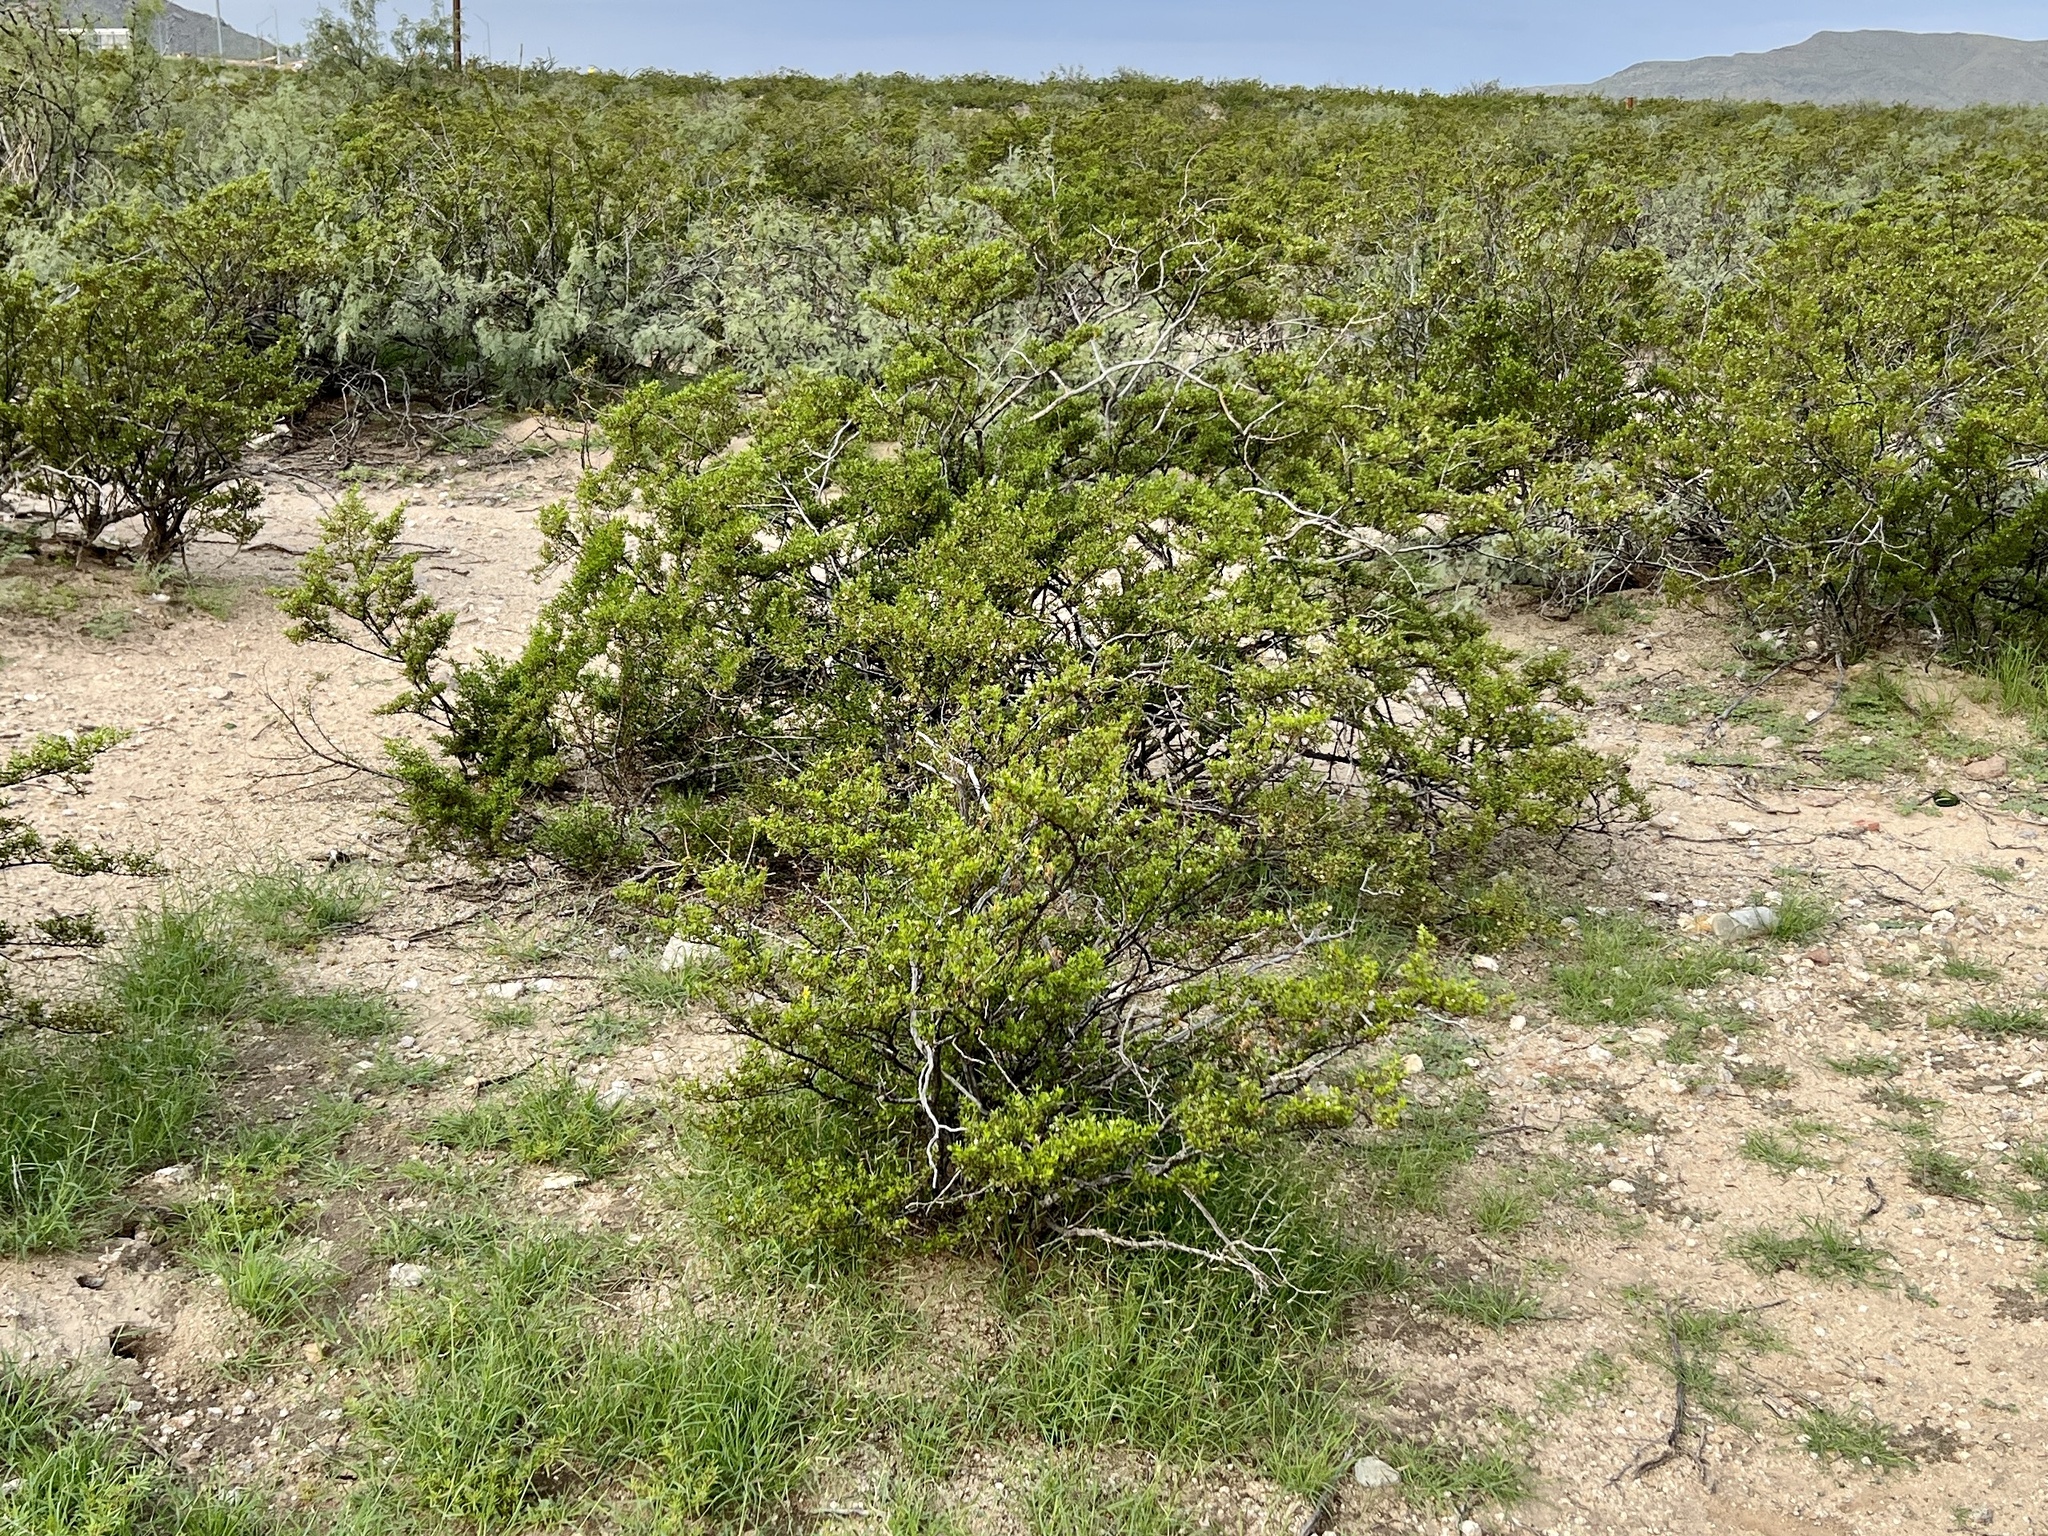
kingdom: Plantae
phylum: Tracheophyta
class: Magnoliopsida
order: Zygophyllales
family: Zygophyllaceae
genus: Larrea
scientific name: Larrea tridentata
